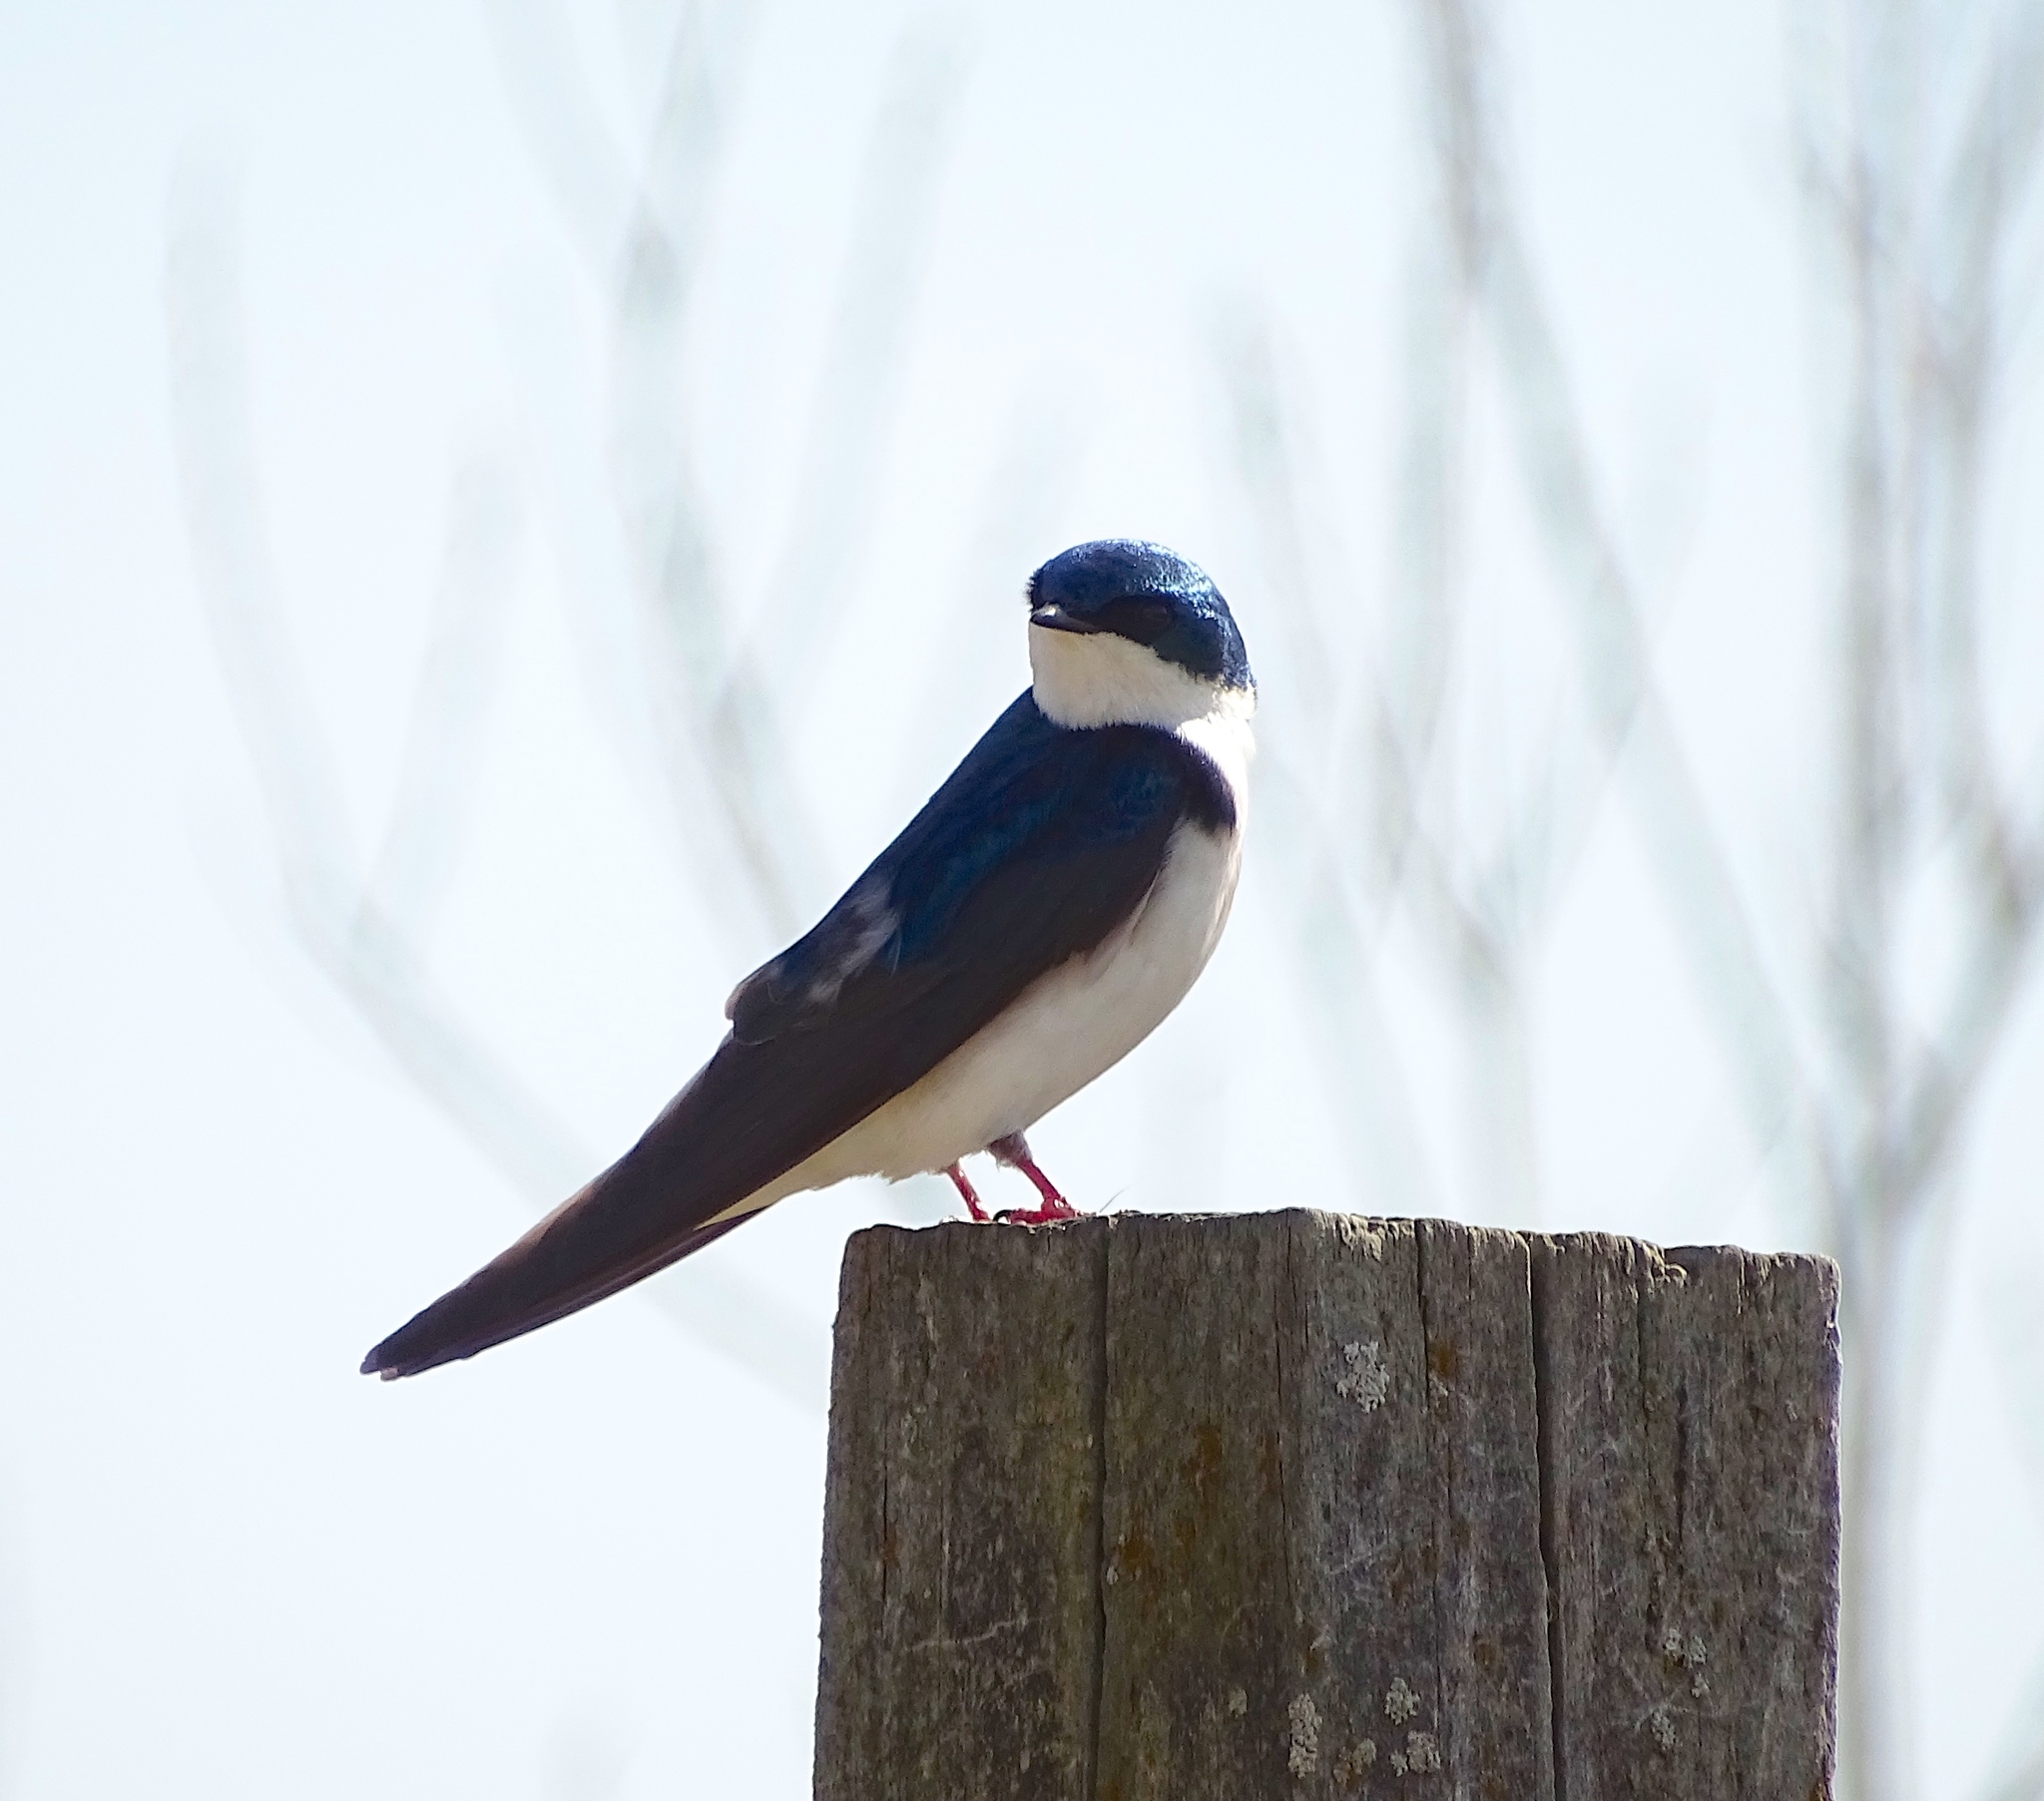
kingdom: Animalia
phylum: Chordata
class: Aves
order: Passeriformes
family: Hirundinidae
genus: Tachycineta
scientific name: Tachycineta bicolor
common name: Tree swallow
